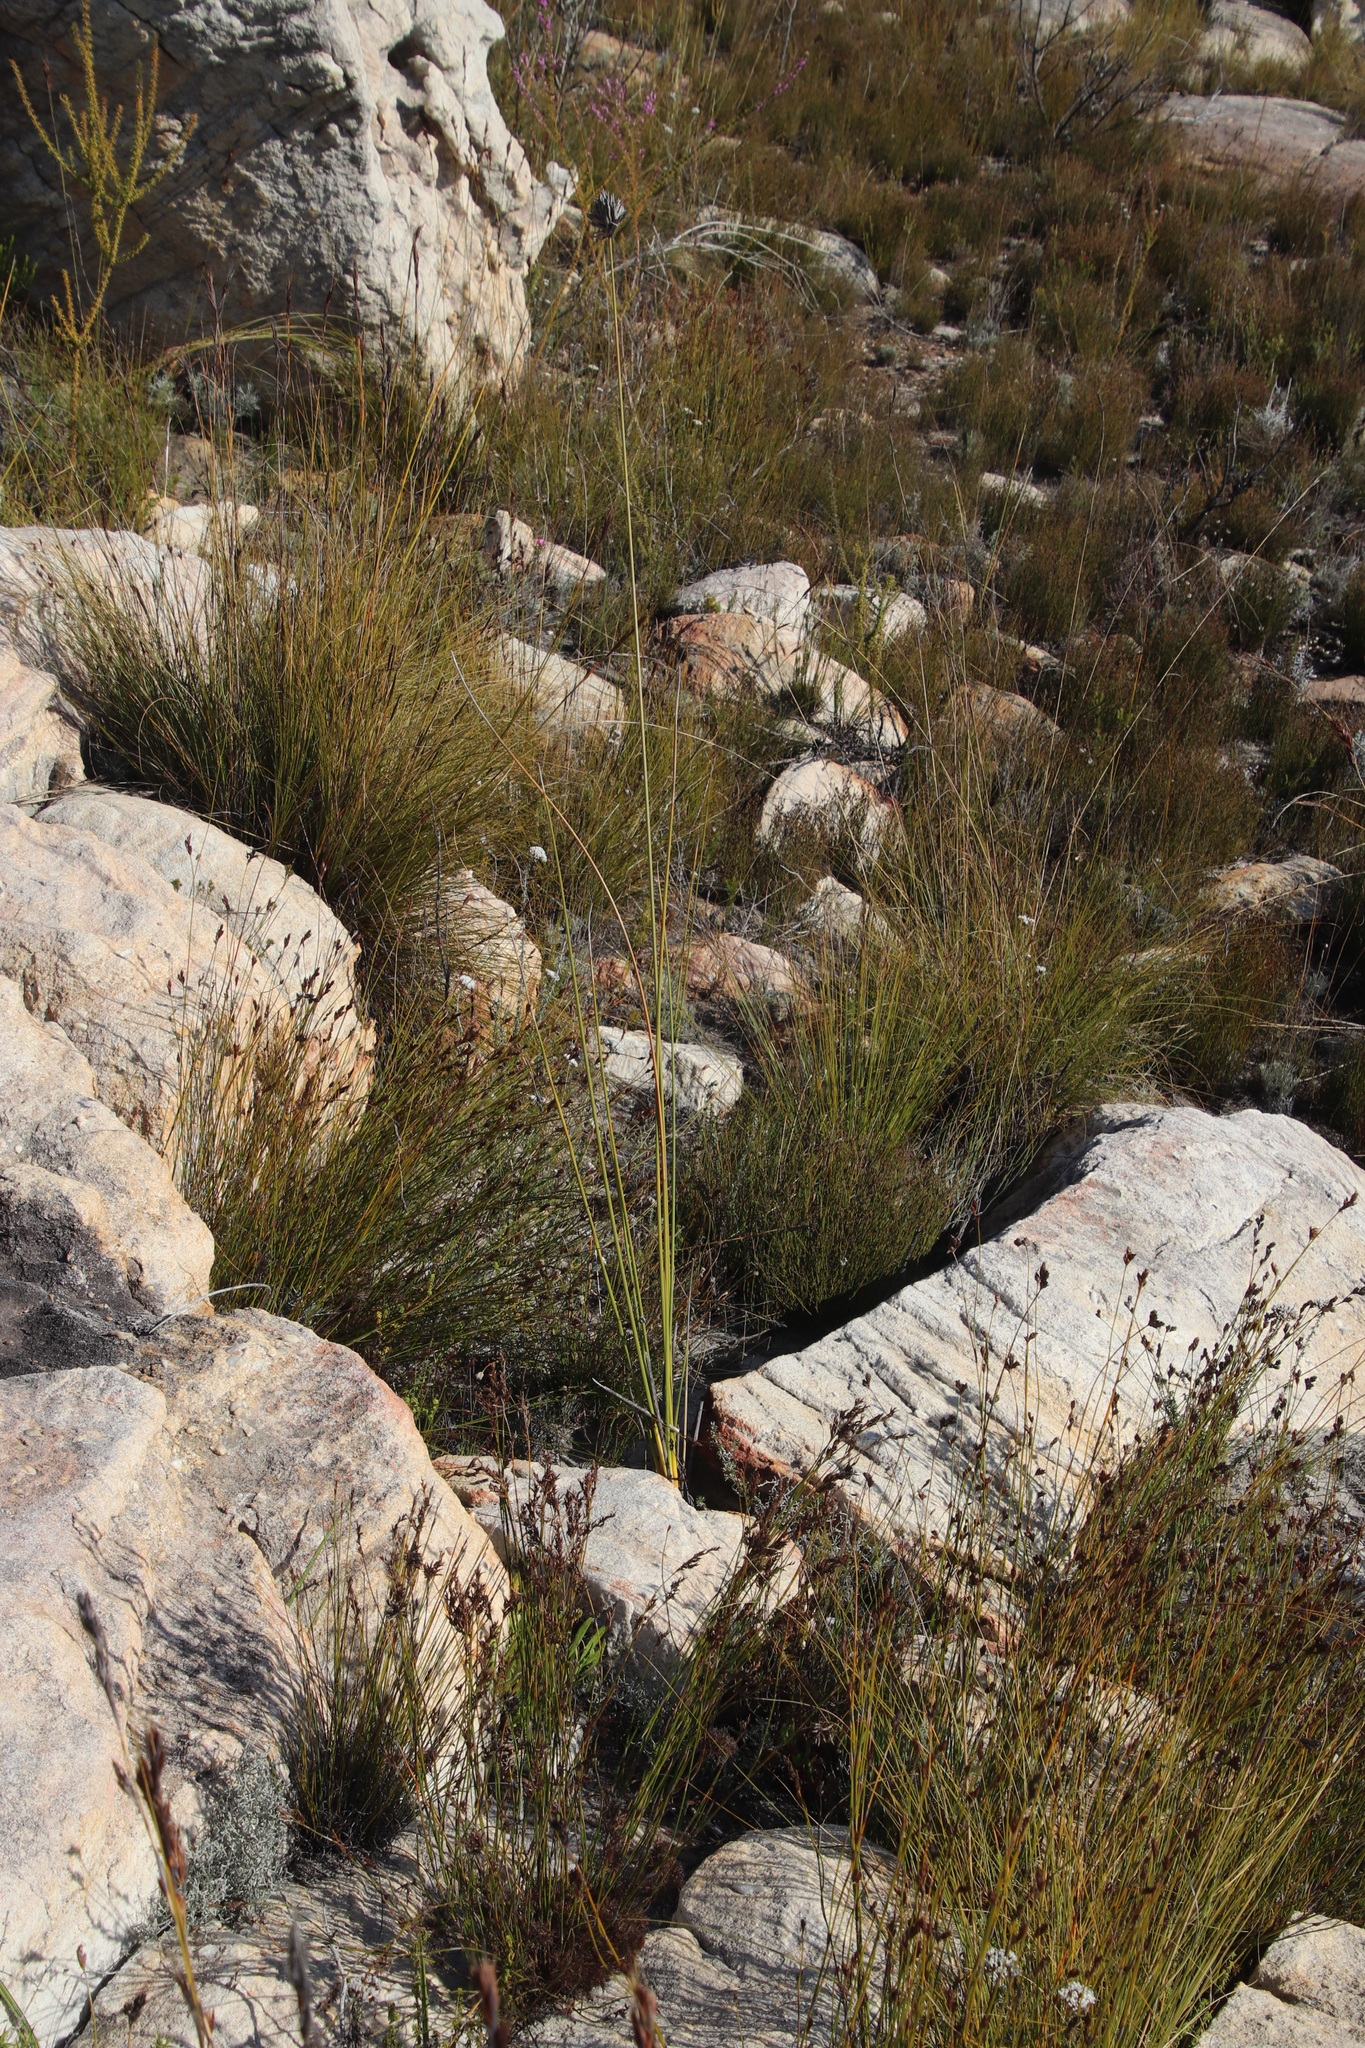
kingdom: Plantae
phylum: Tracheophyta
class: Liliopsida
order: Poales
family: Cyperaceae
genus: Tetraria
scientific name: Tetraria ustulata
